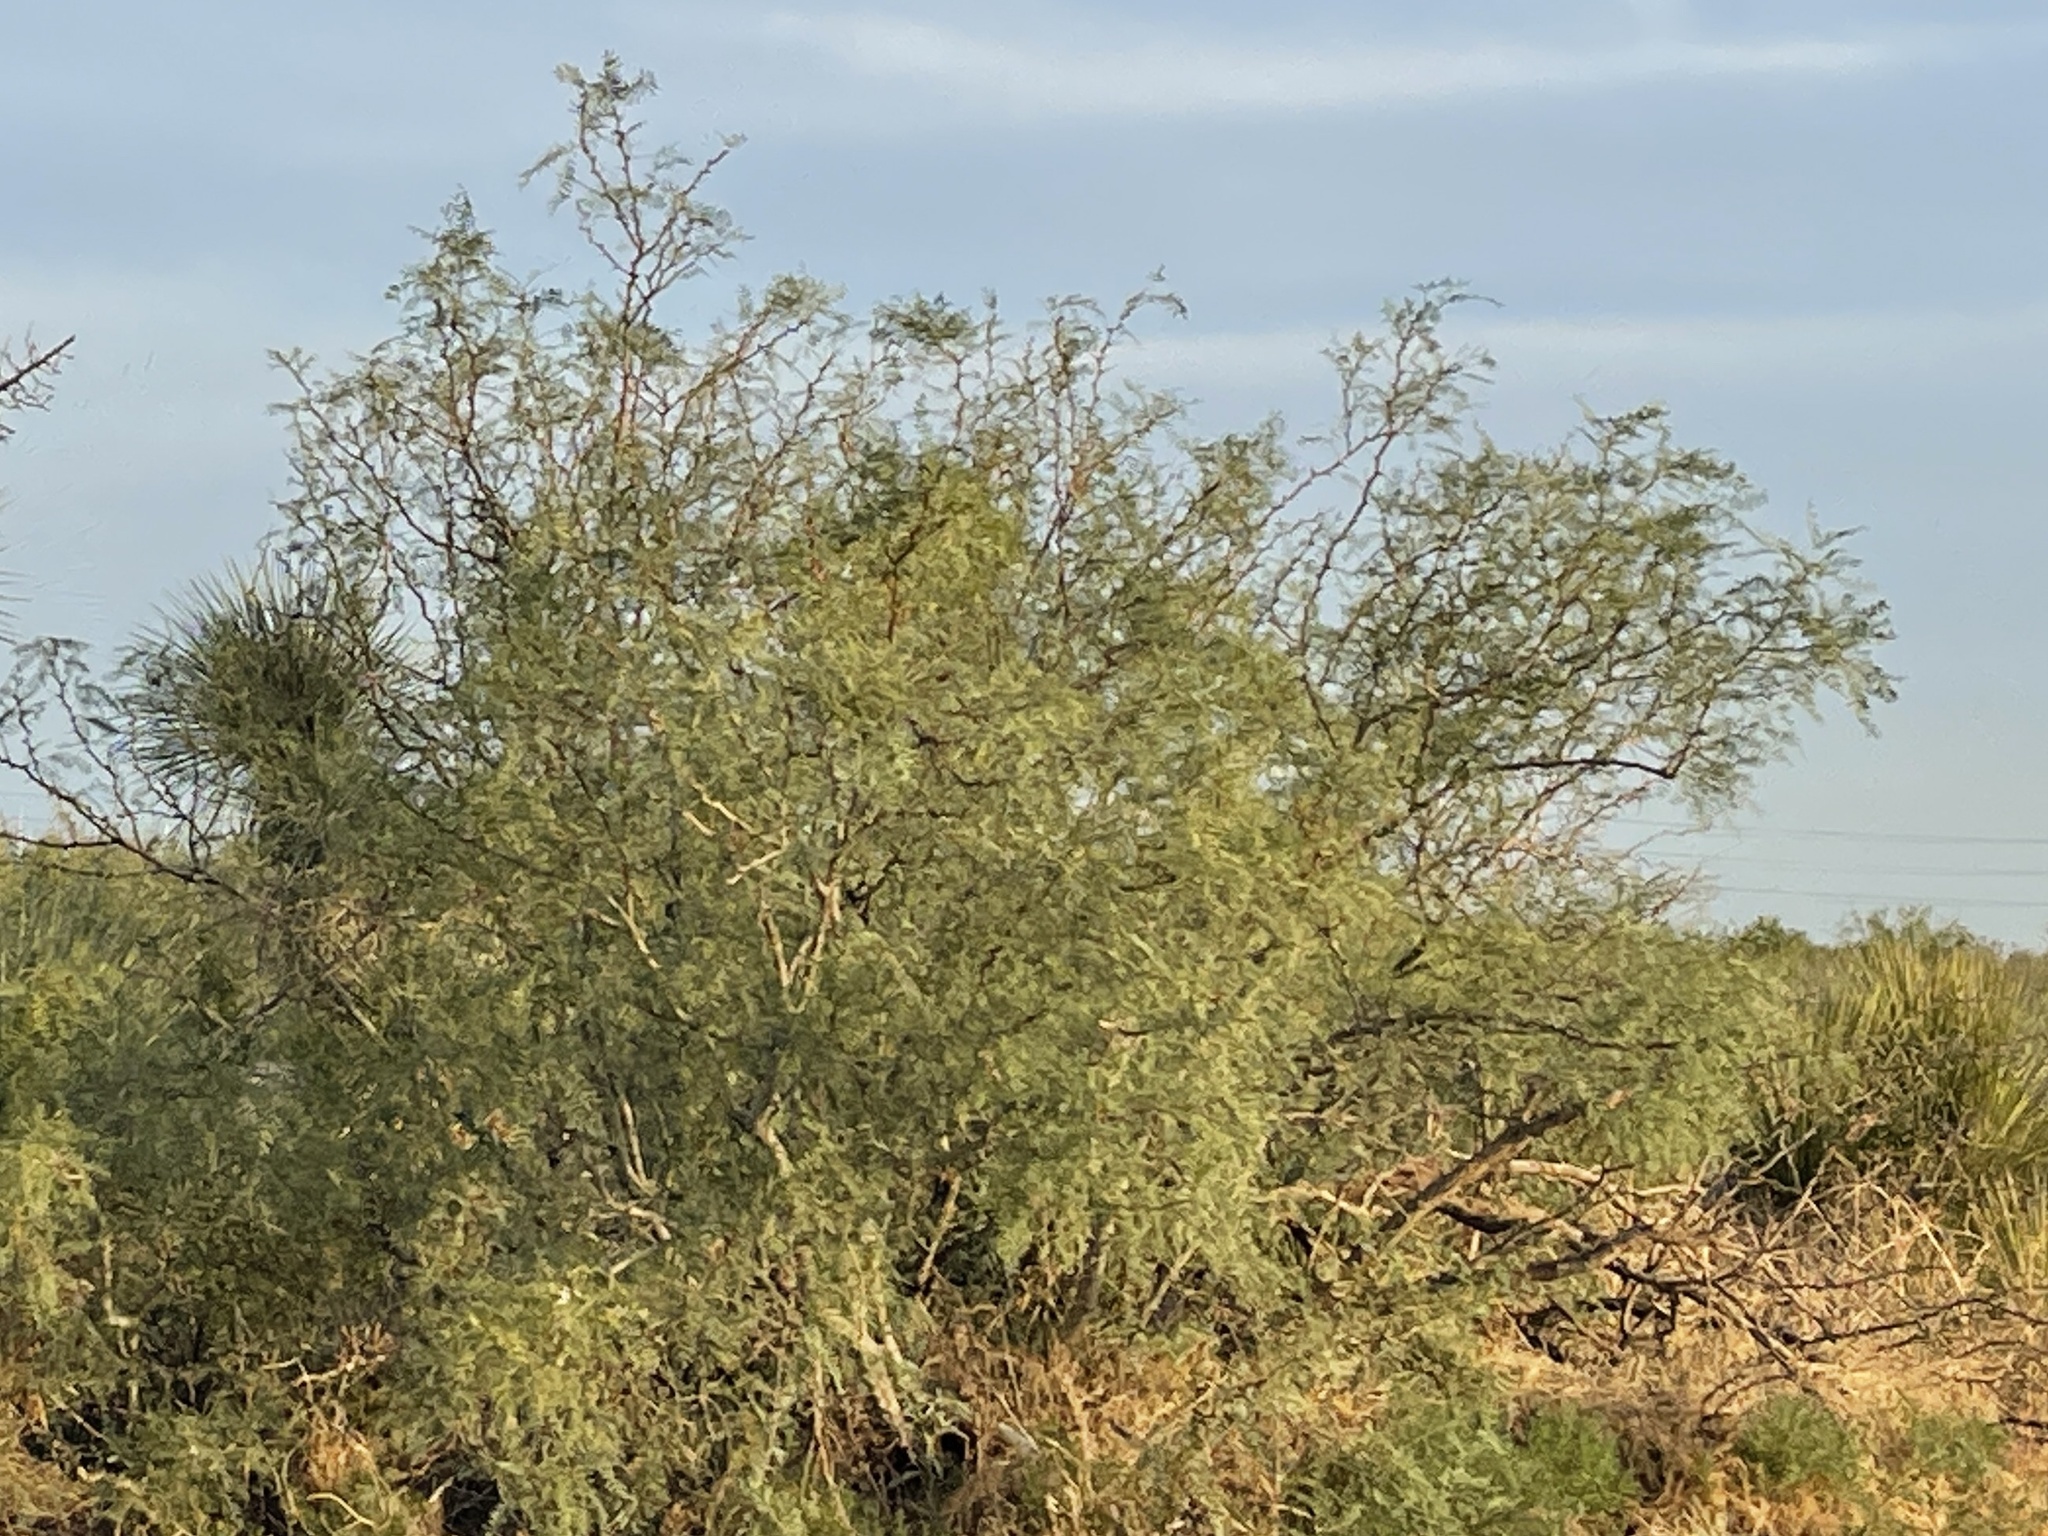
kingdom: Plantae
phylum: Tracheophyta
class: Magnoliopsida
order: Fabales
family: Fabaceae
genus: Prosopis
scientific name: Prosopis glandulosa
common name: Honey mesquite
